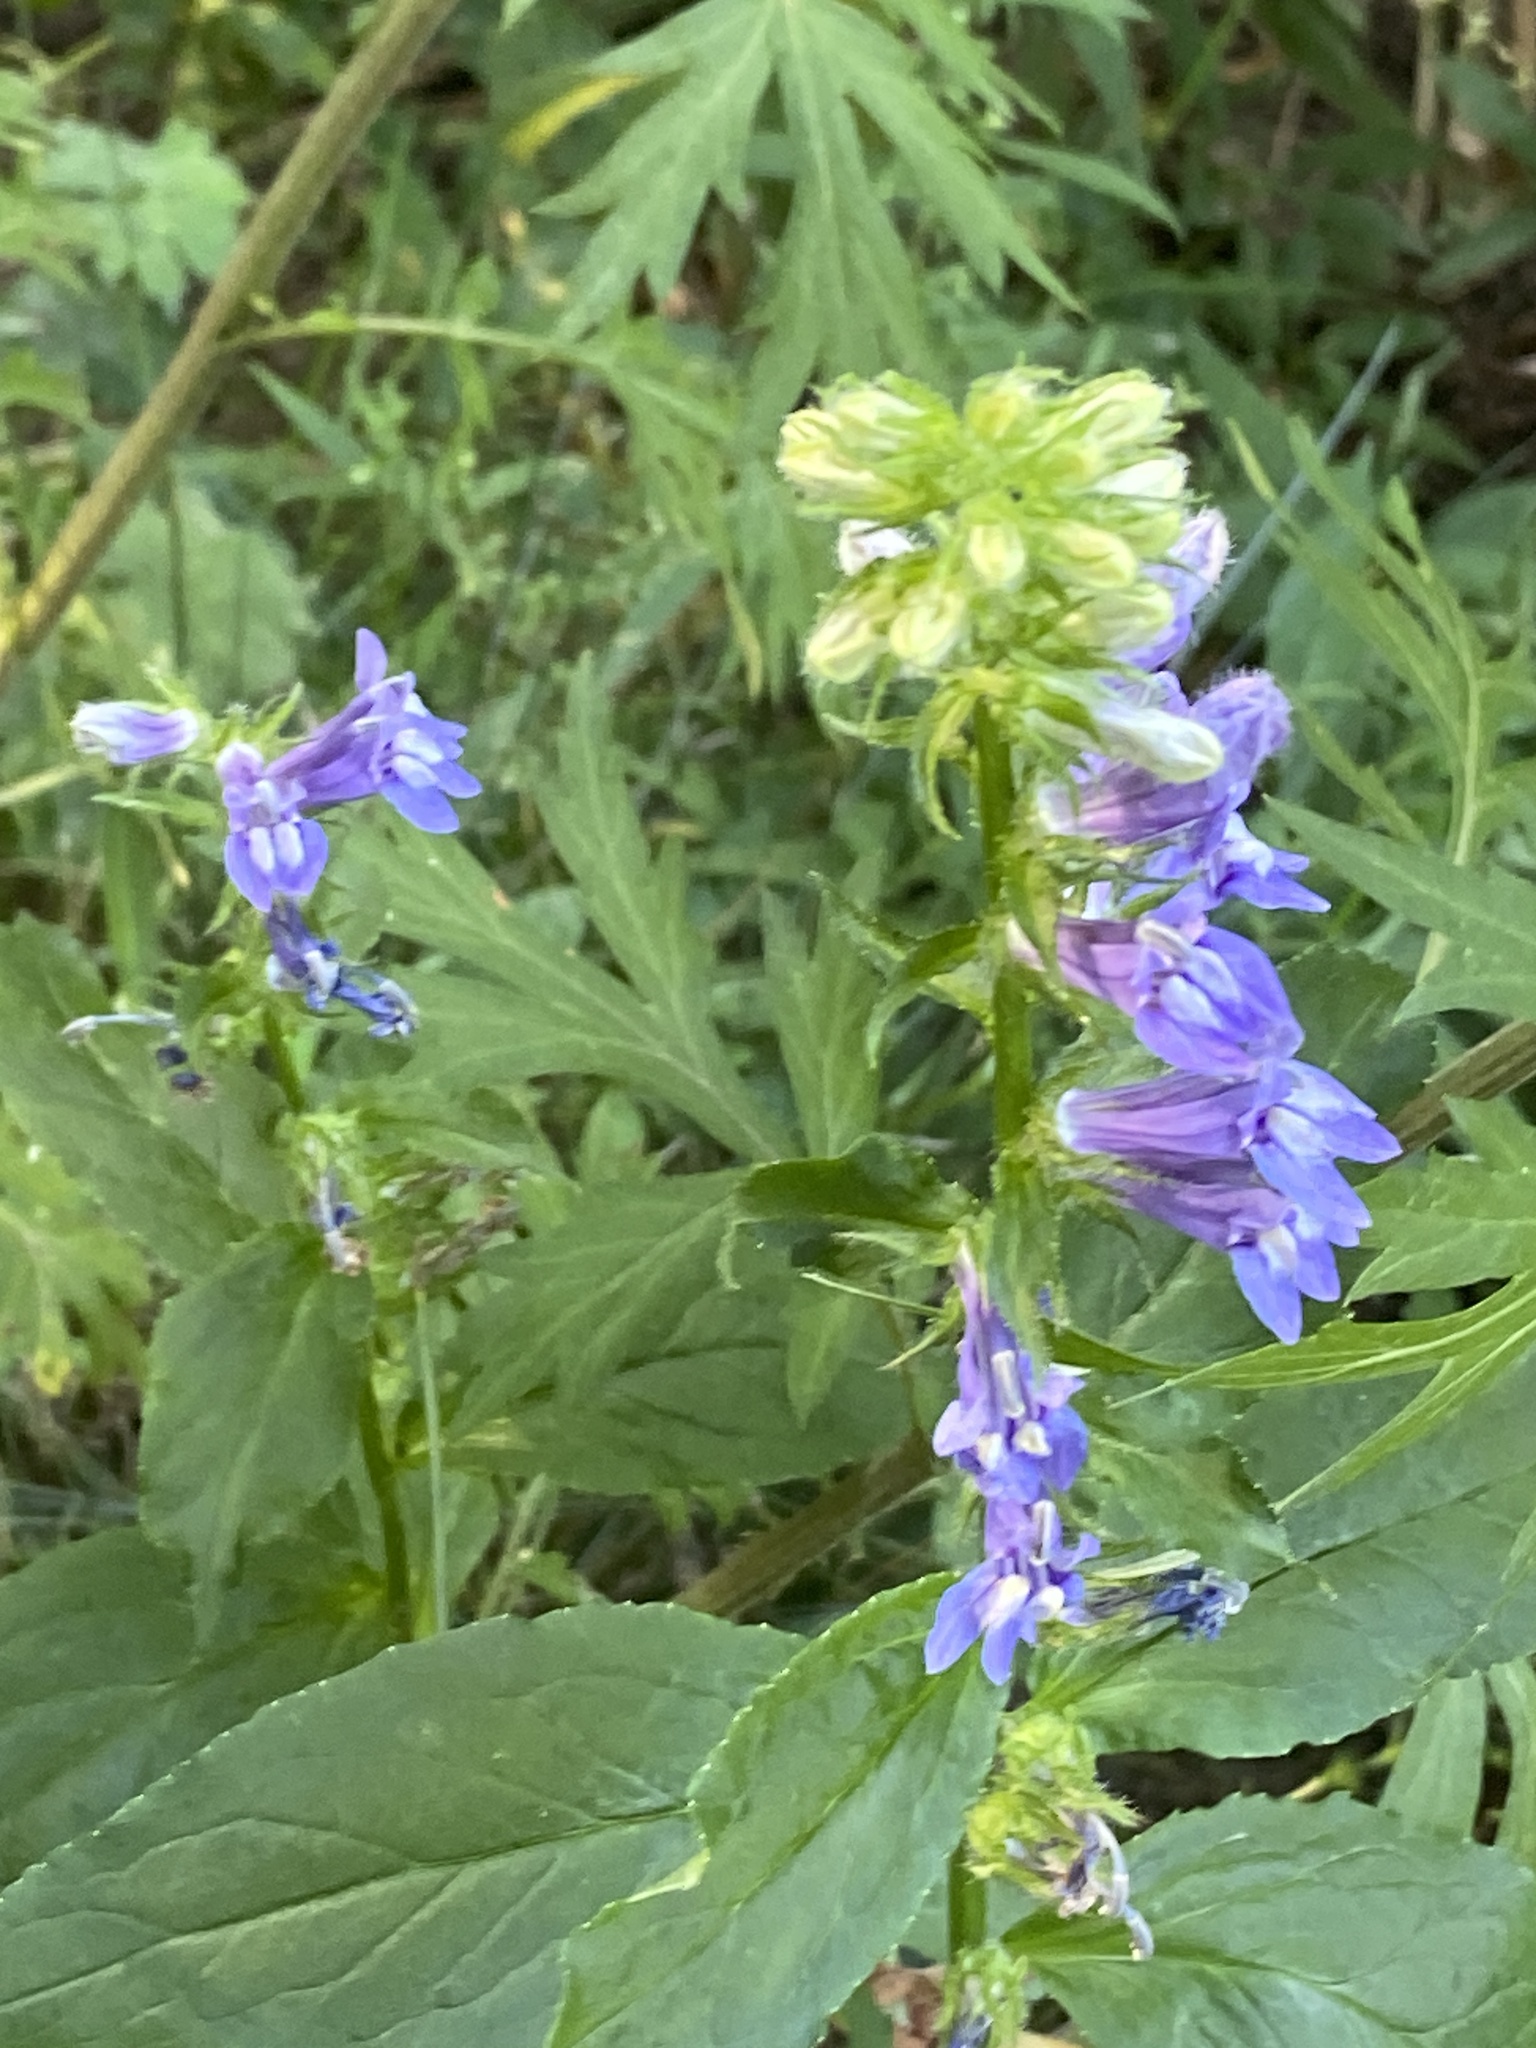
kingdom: Plantae
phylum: Tracheophyta
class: Magnoliopsida
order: Asterales
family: Campanulaceae
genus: Lobelia
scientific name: Lobelia siphilitica
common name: Great lobelia
